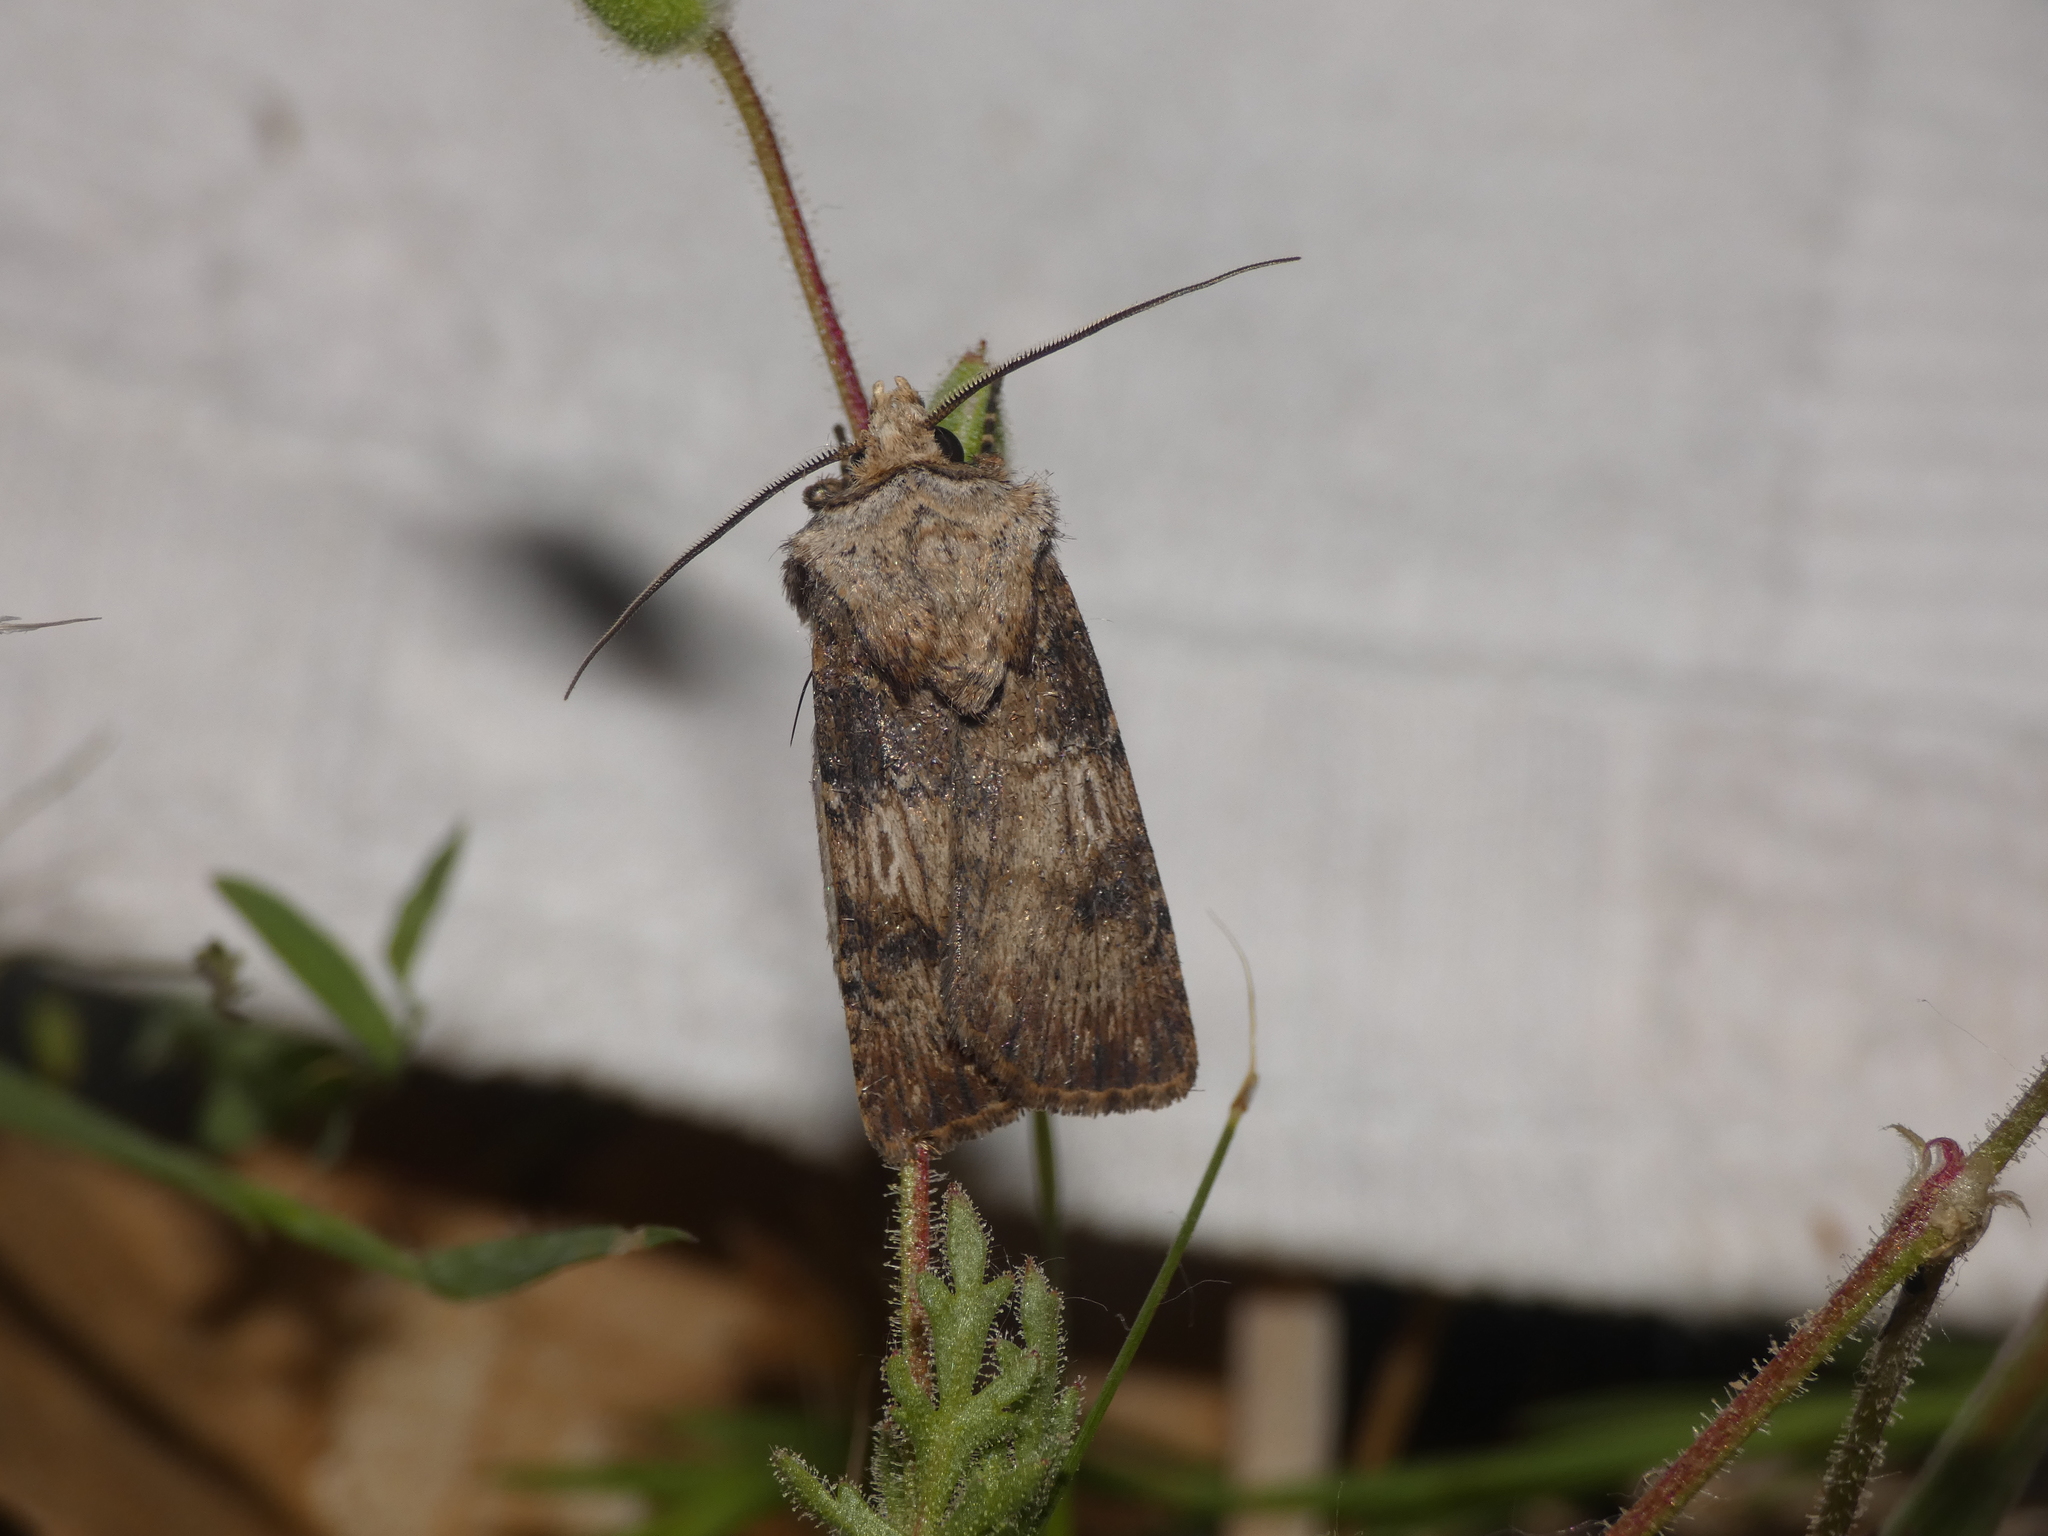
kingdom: Animalia
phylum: Arthropoda
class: Insecta
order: Lepidoptera
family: Noctuidae
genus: Agrotis
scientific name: Agrotis puta
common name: Shuttle-shaped dart
